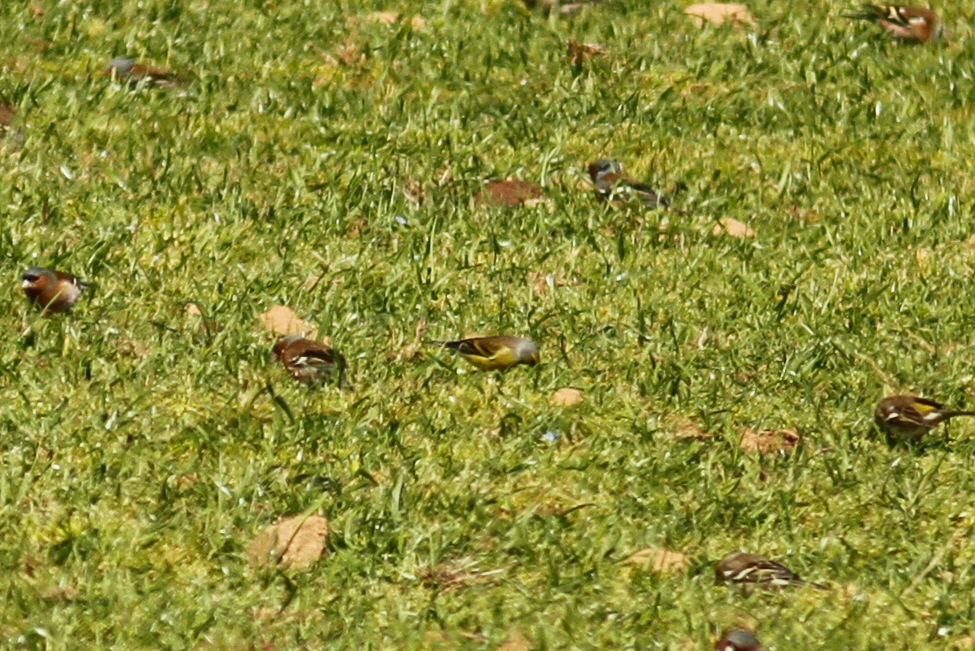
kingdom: Animalia
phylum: Chordata
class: Aves
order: Passeriformes
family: Fringillidae
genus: Carduelis
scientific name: Carduelis corsicana
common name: Corsican finch
